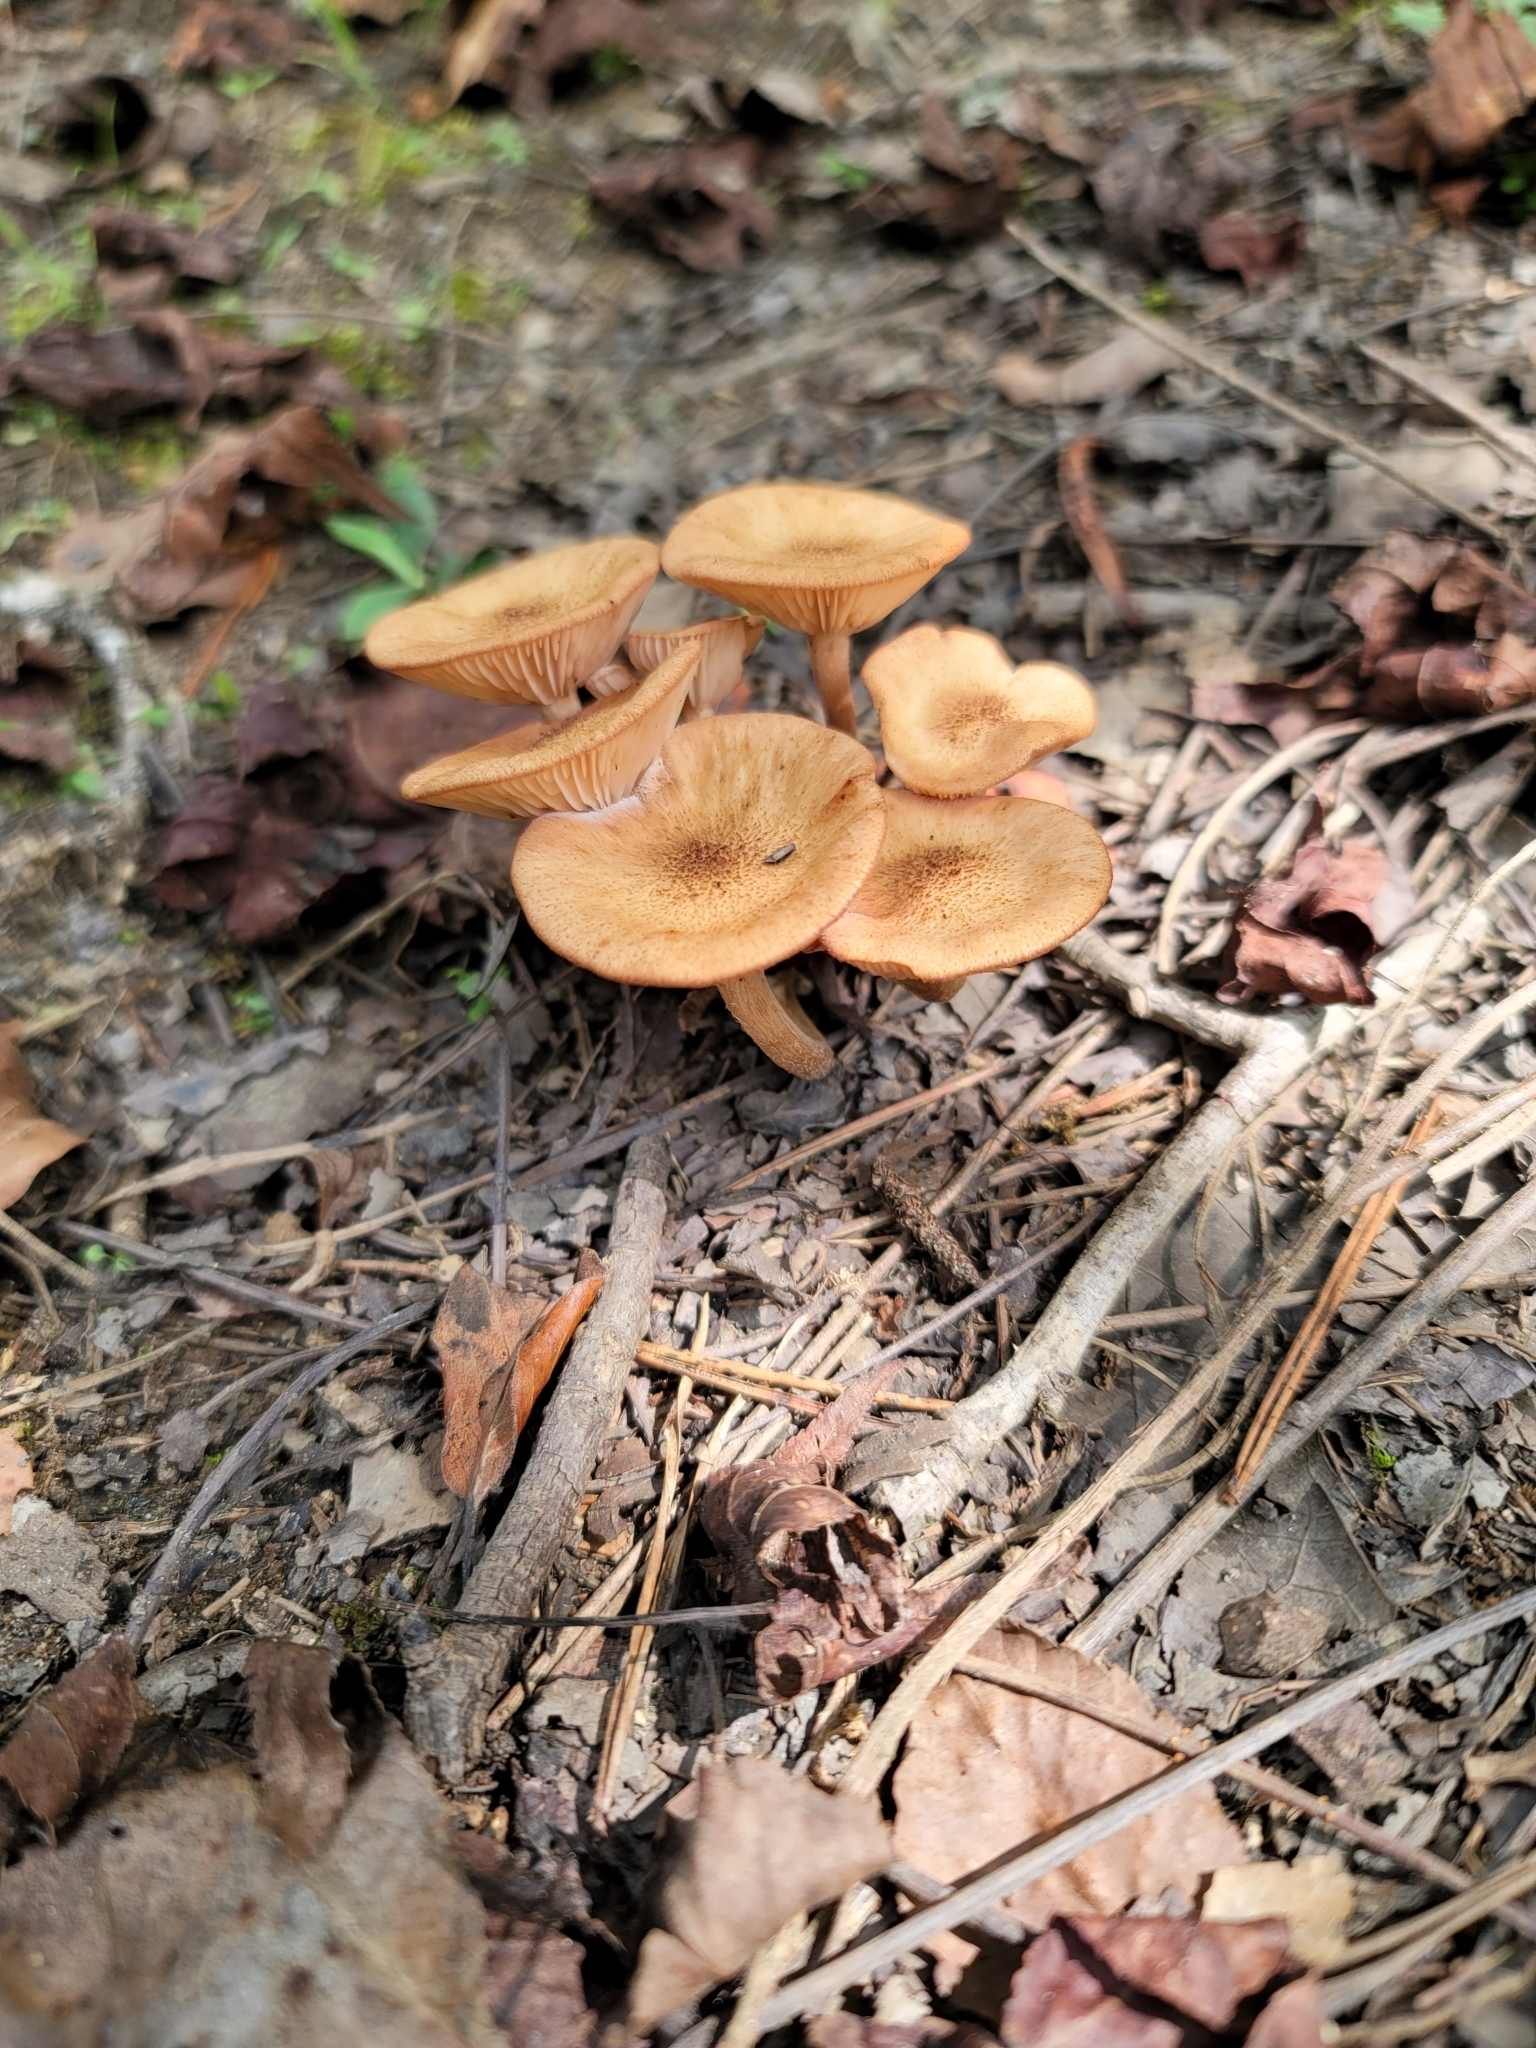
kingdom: Fungi
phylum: Basidiomycota
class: Agaricomycetes
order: Agaricales
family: Physalacriaceae
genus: Desarmillaria
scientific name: Desarmillaria caespitosa
